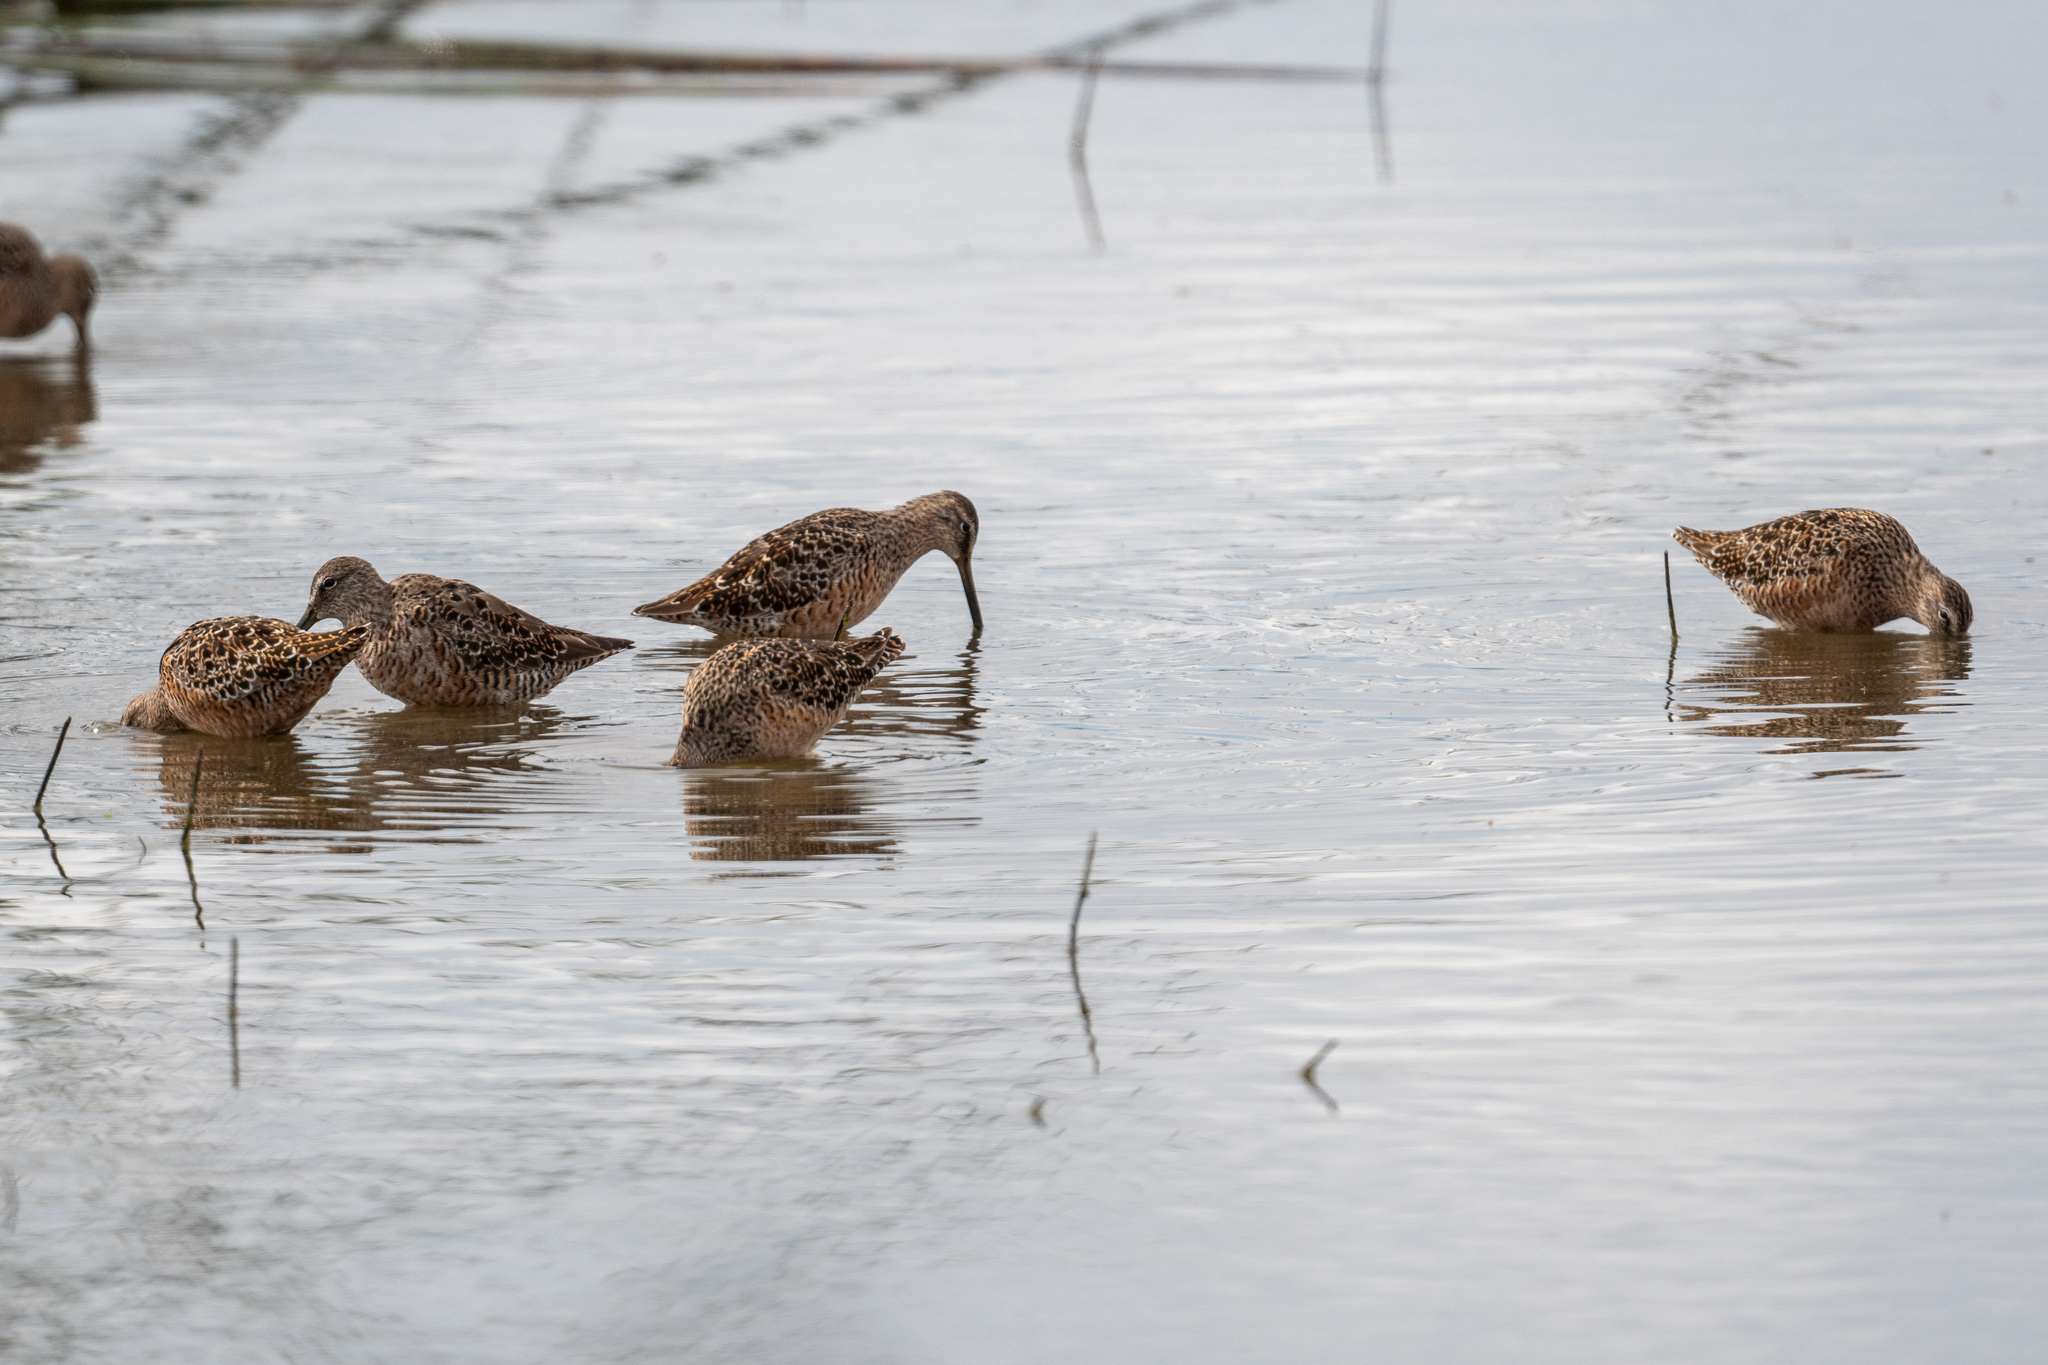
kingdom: Animalia
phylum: Chordata
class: Aves
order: Charadriiformes
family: Scolopacidae
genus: Limnodromus
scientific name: Limnodromus scolopaceus
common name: Long-billed dowitcher
